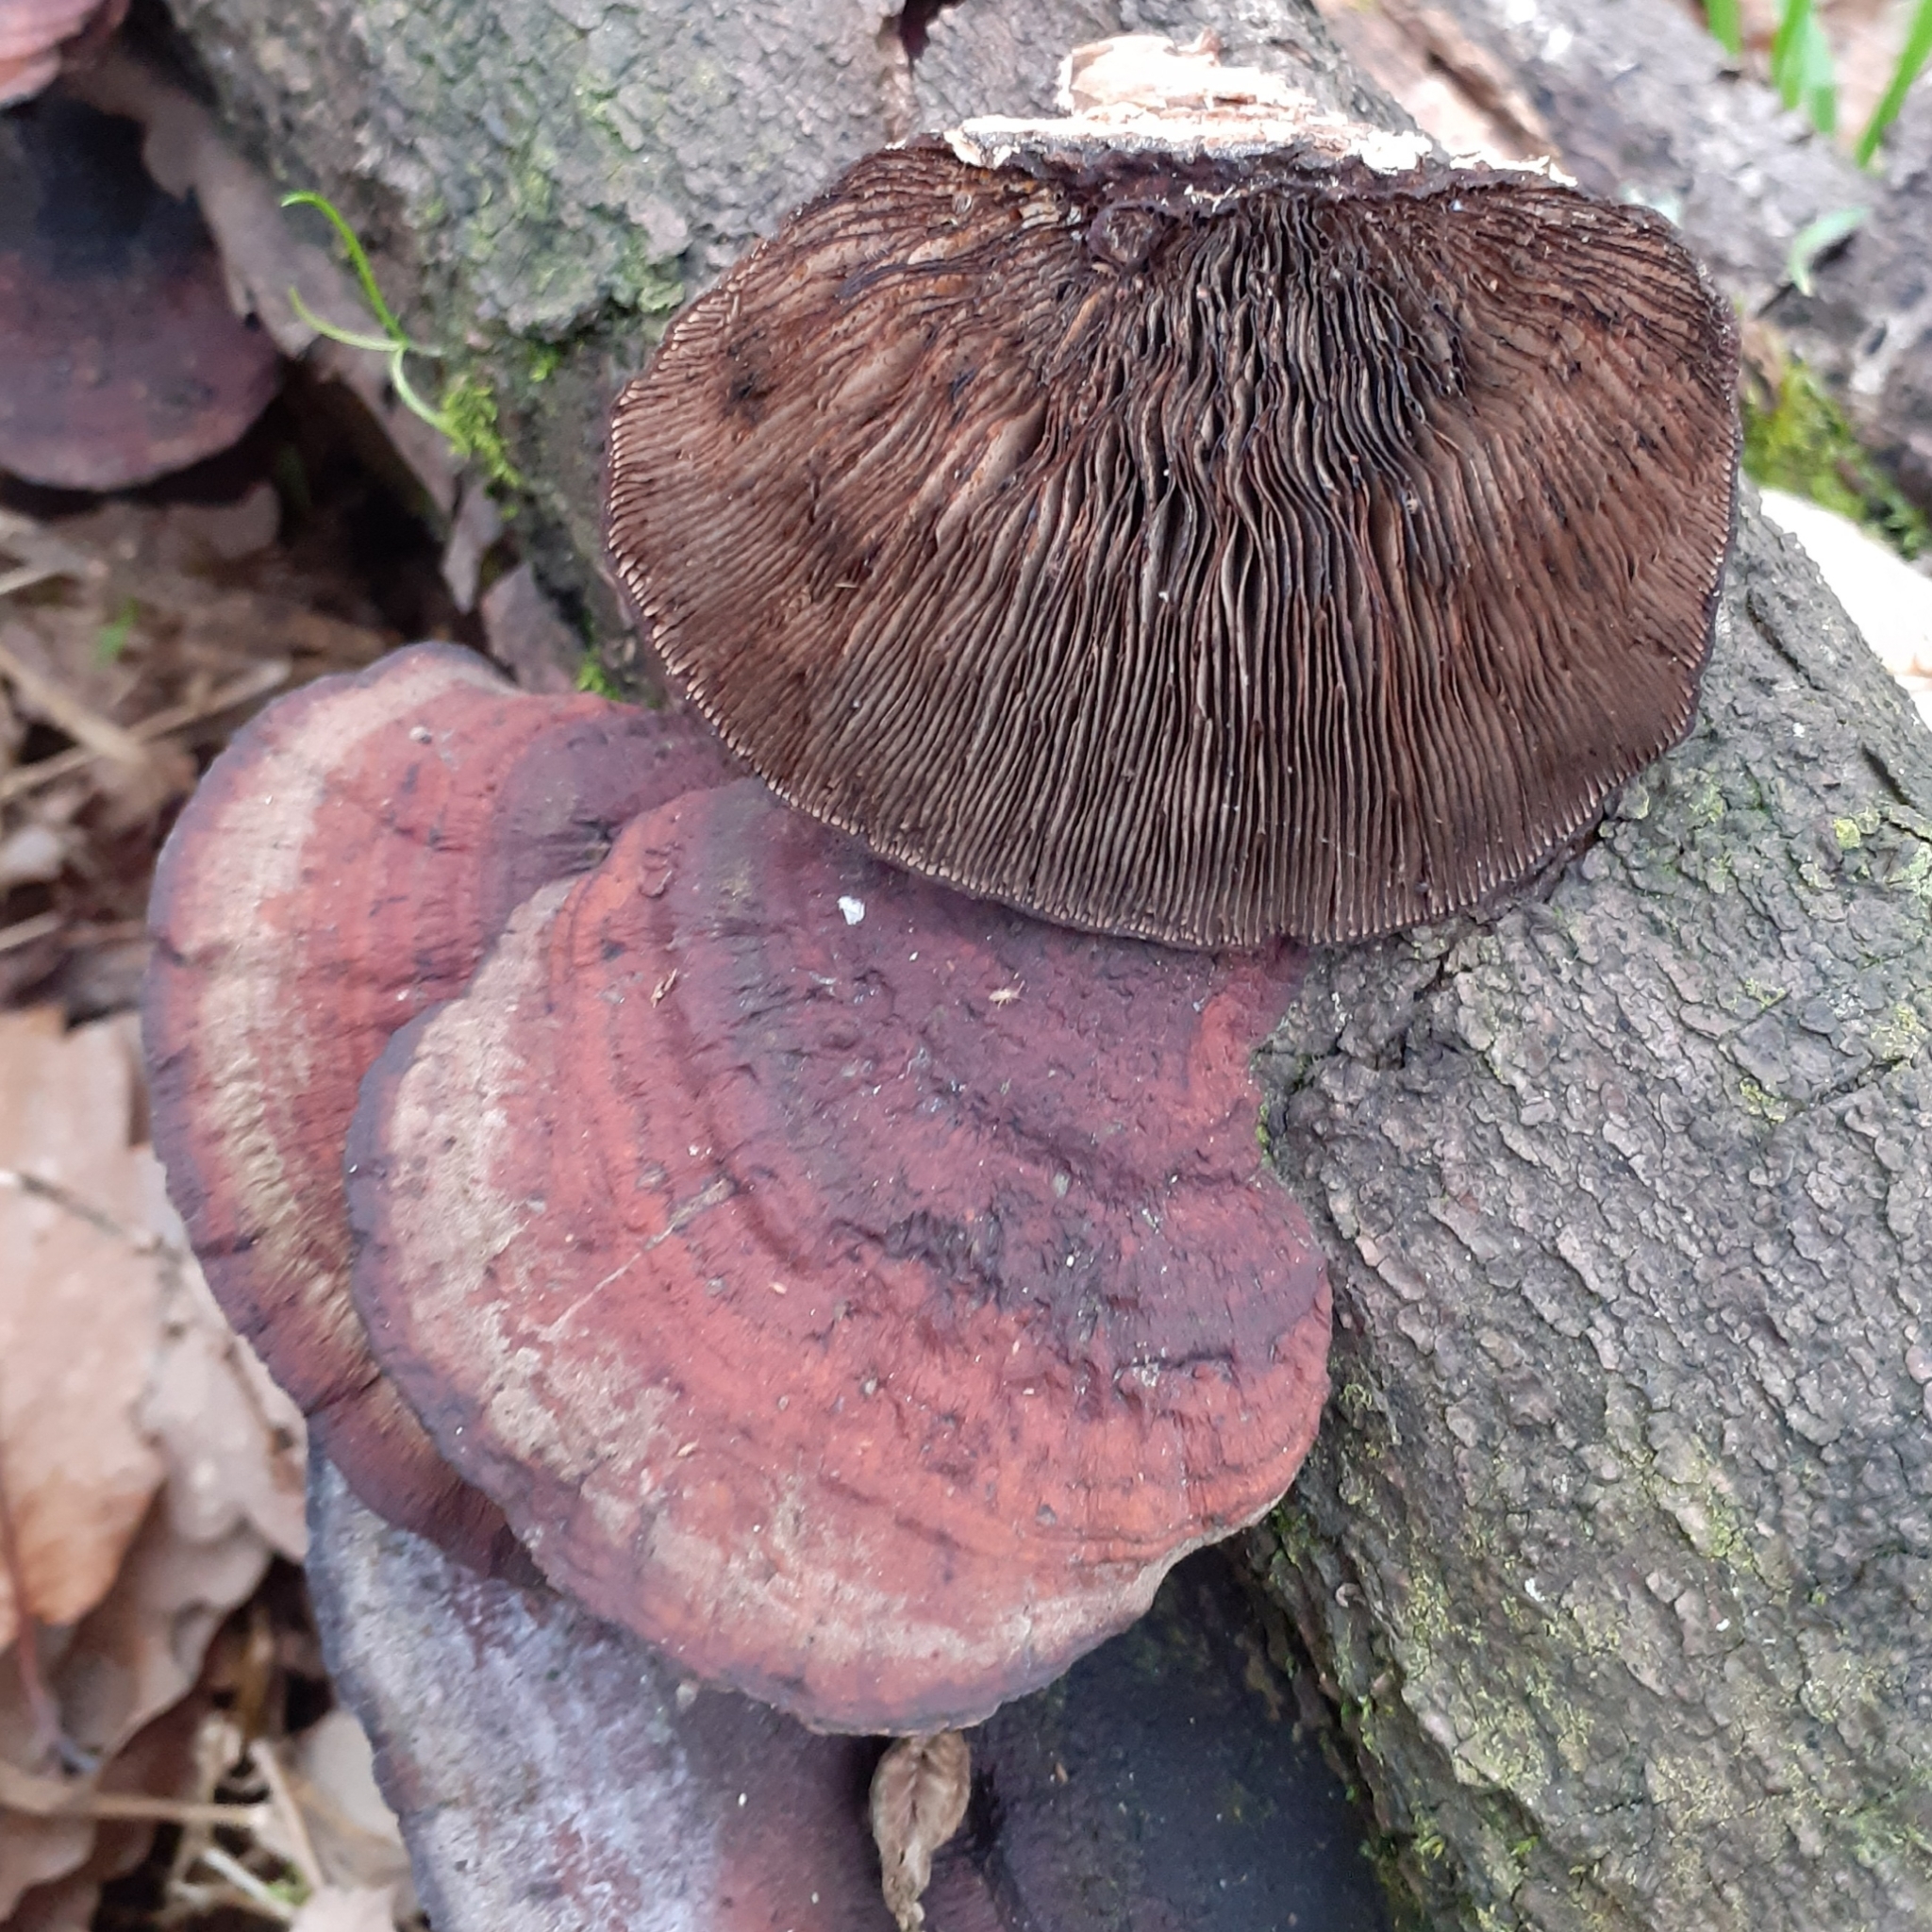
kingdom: Fungi
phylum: Basidiomycota
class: Agaricomycetes
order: Polyporales
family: Polyporaceae
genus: Daedaleopsis
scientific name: Daedaleopsis tricolor
